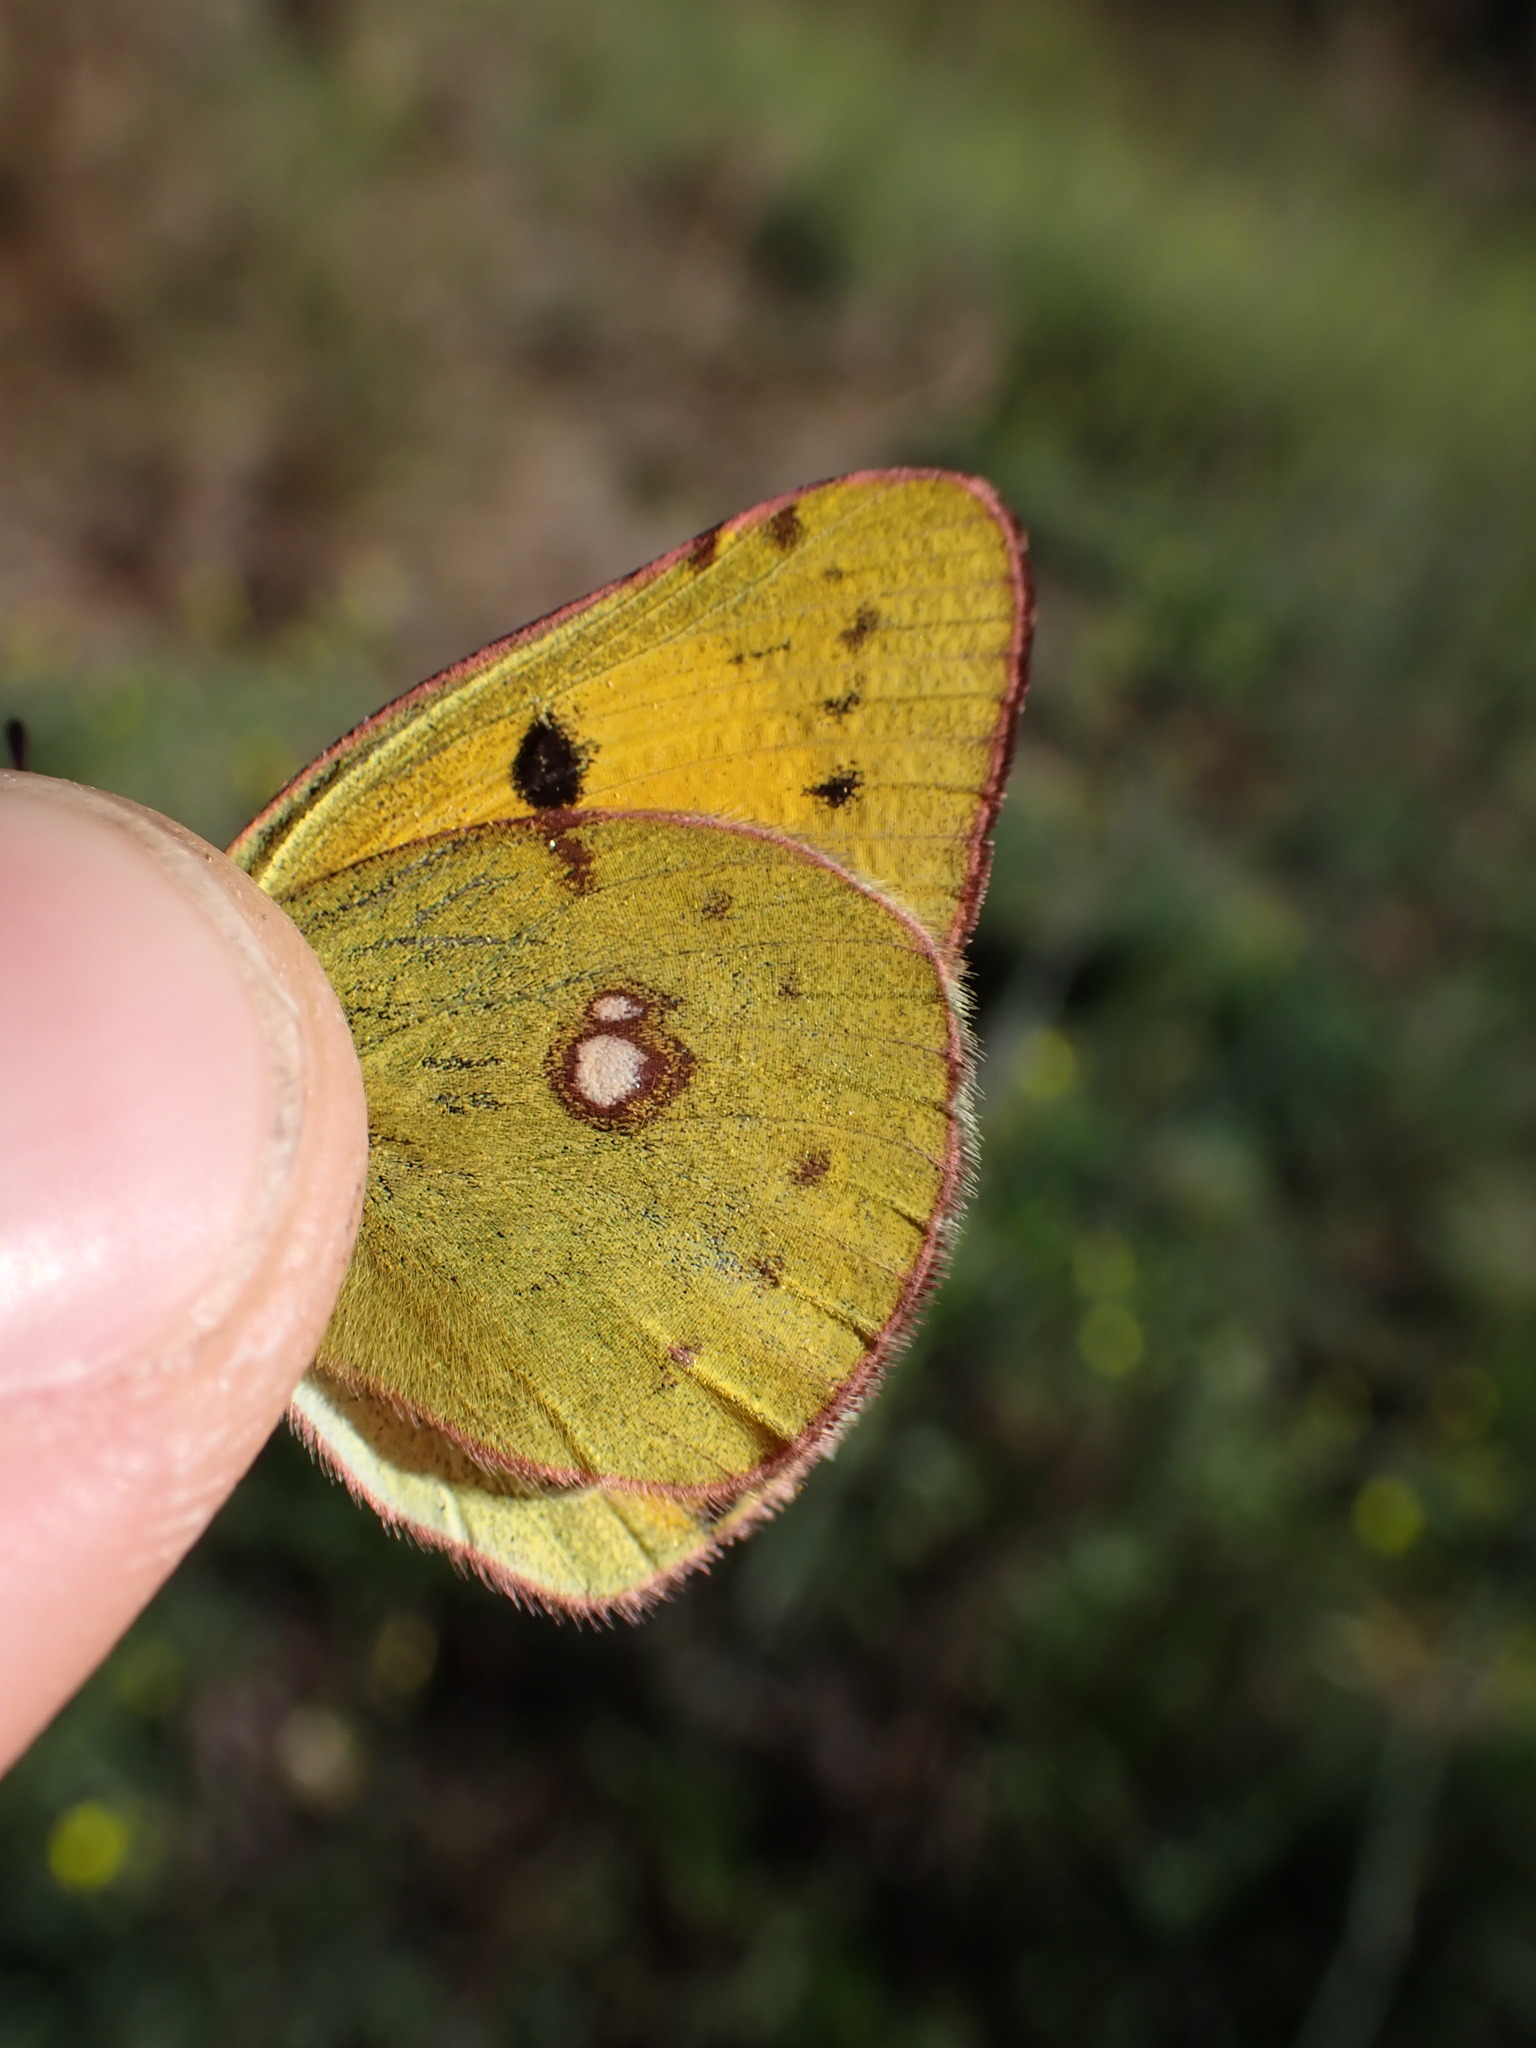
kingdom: Animalia
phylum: Arthropoda
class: Insecta
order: Lepidoptera
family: Pieridae
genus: Colias
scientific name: Colias croceus
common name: Clouded yellow
